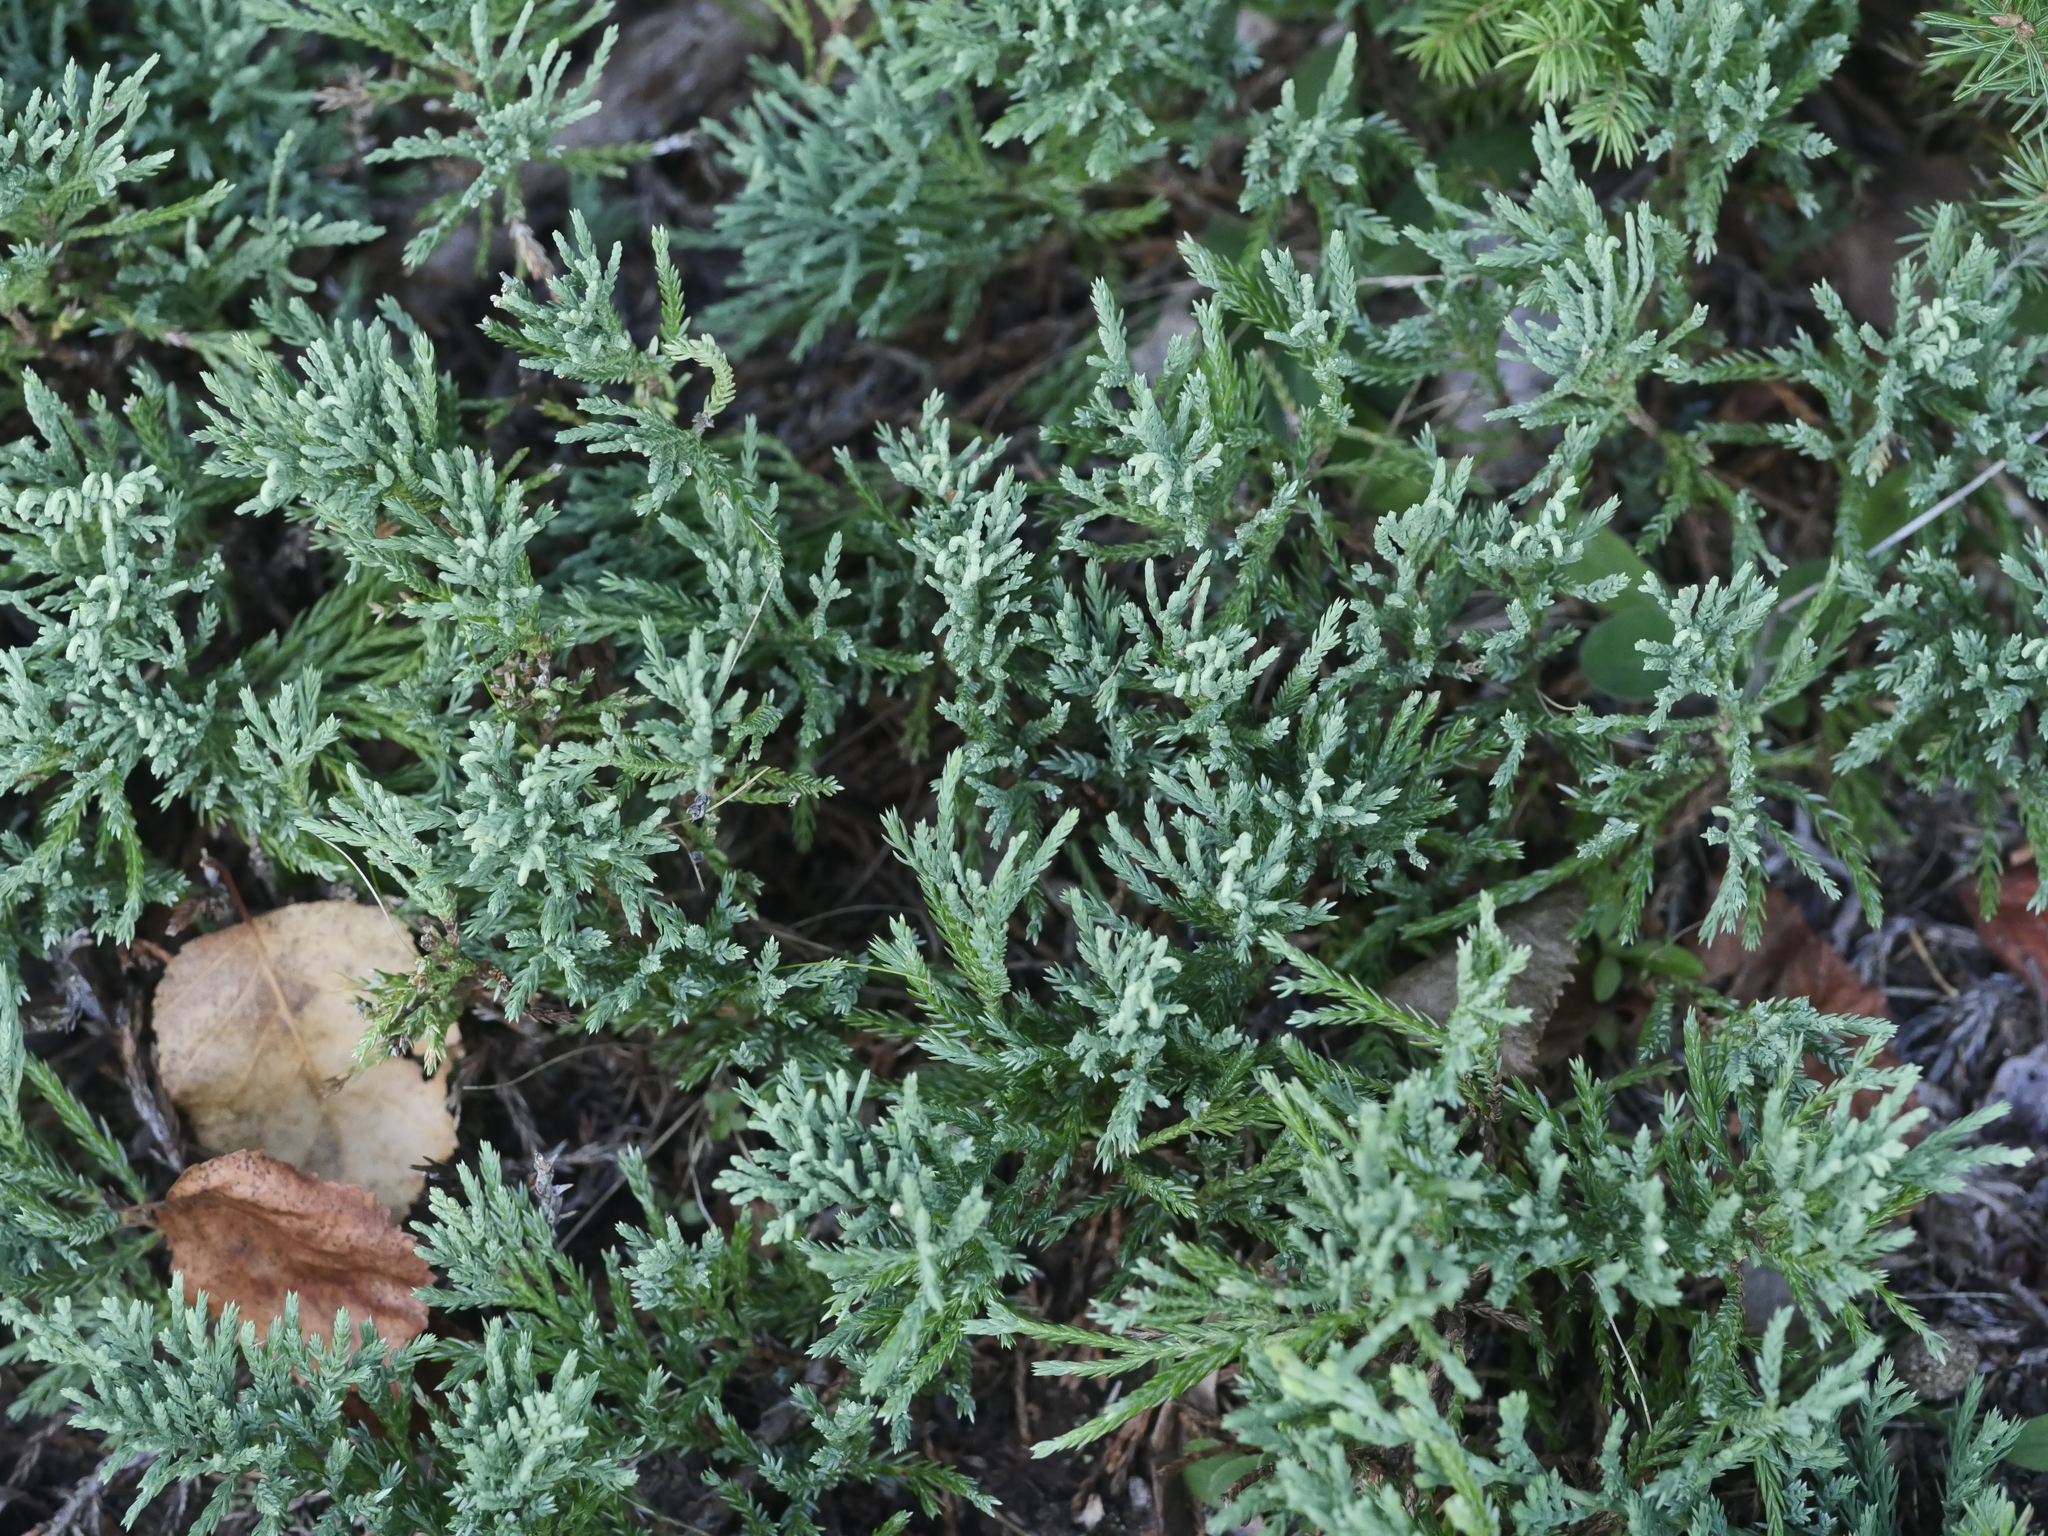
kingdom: Plantae
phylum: Tracheophyta
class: Pinopsida
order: Pinales
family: Cupressaceae
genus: Juniperus
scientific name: Juniperus horizontalis
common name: Creeping juniper
